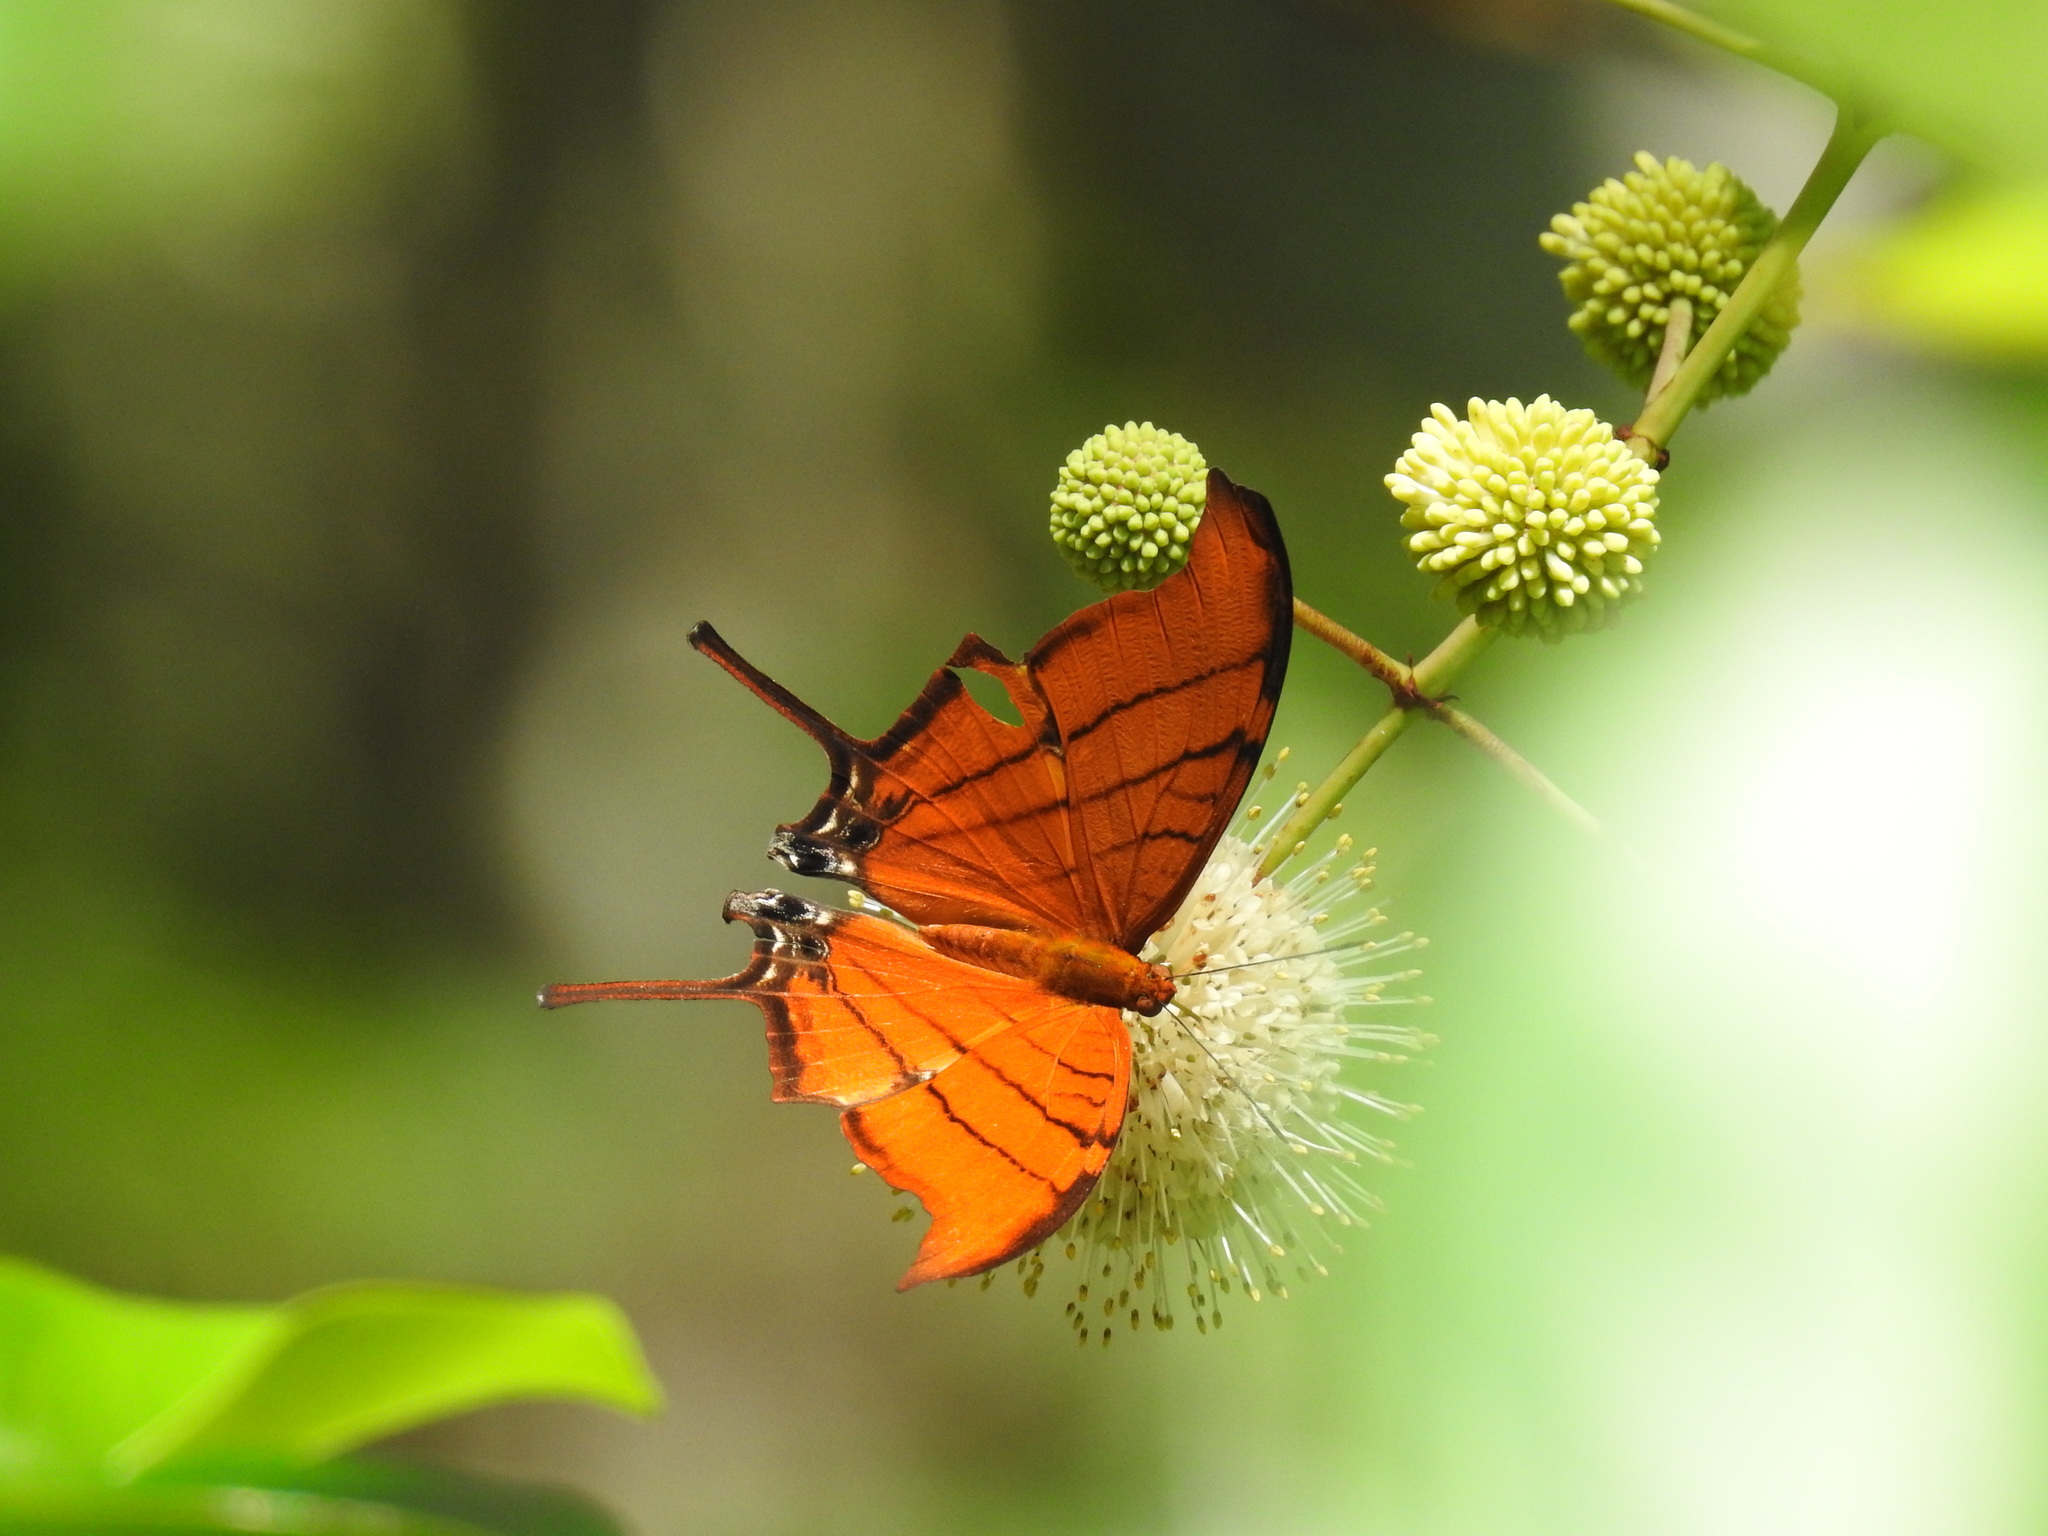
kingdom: Animalia
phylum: Arthropoda
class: Insecta
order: Lepidoptera
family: Nymphalidae
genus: Marpesia
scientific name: Marpesia petreus
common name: Red dagger wing
